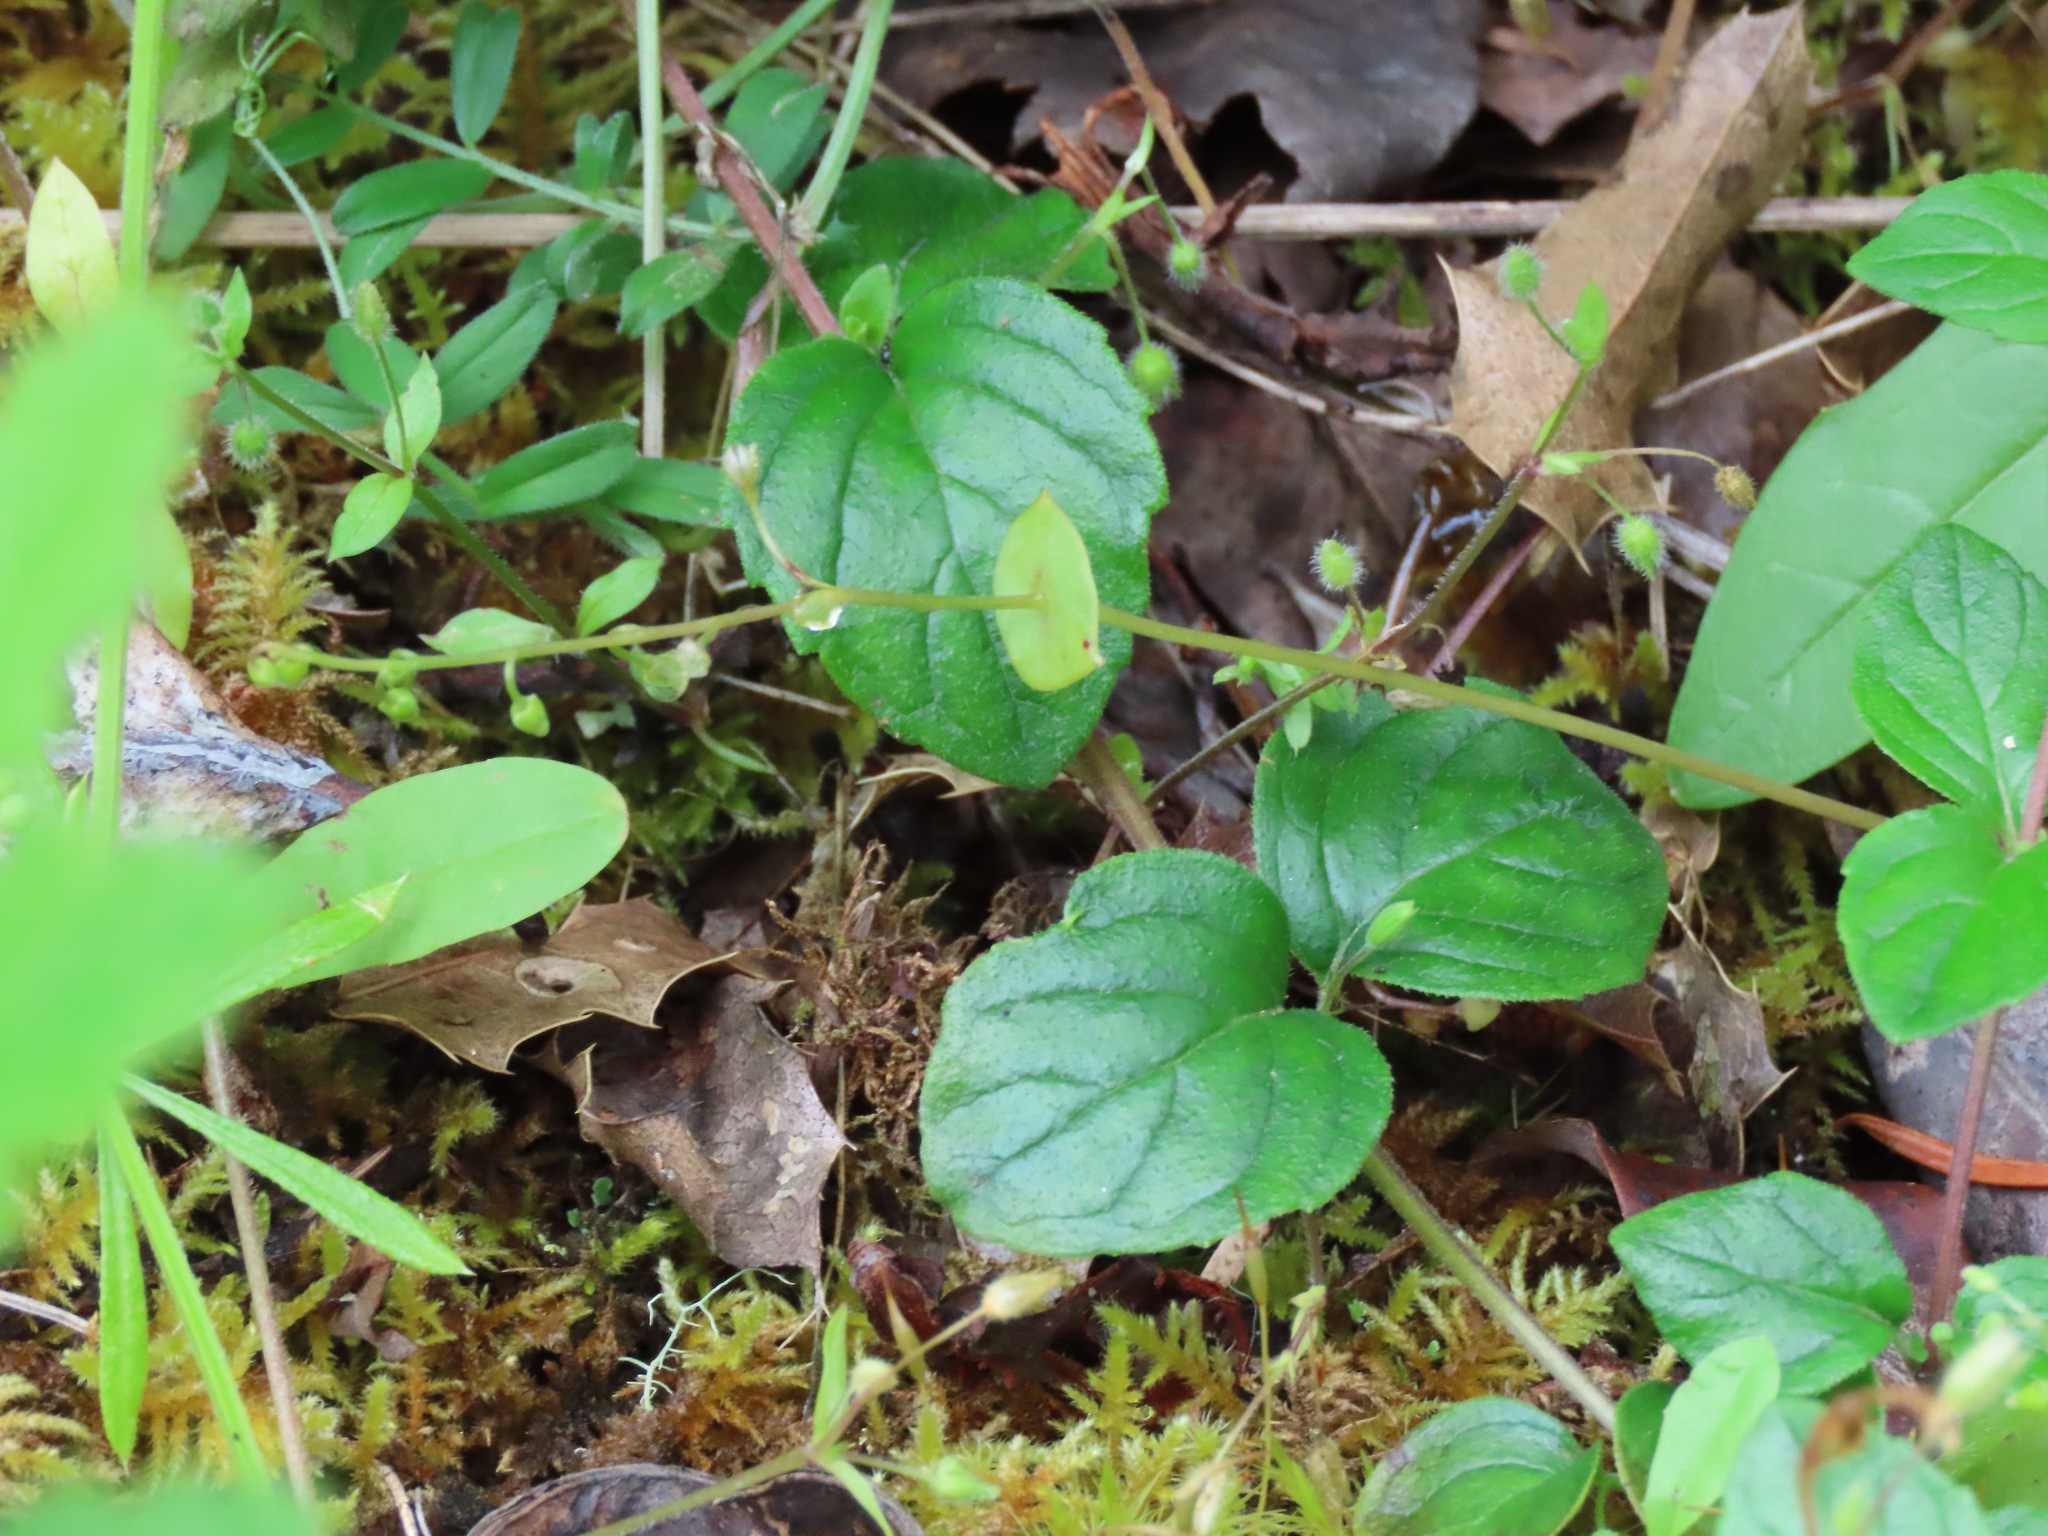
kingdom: Plantae
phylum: Tracheophyta
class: Magnoliopsida
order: Lamiales
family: Lamiaceae
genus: Micromeria
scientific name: Micromeria douglasii
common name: Yerba buena
